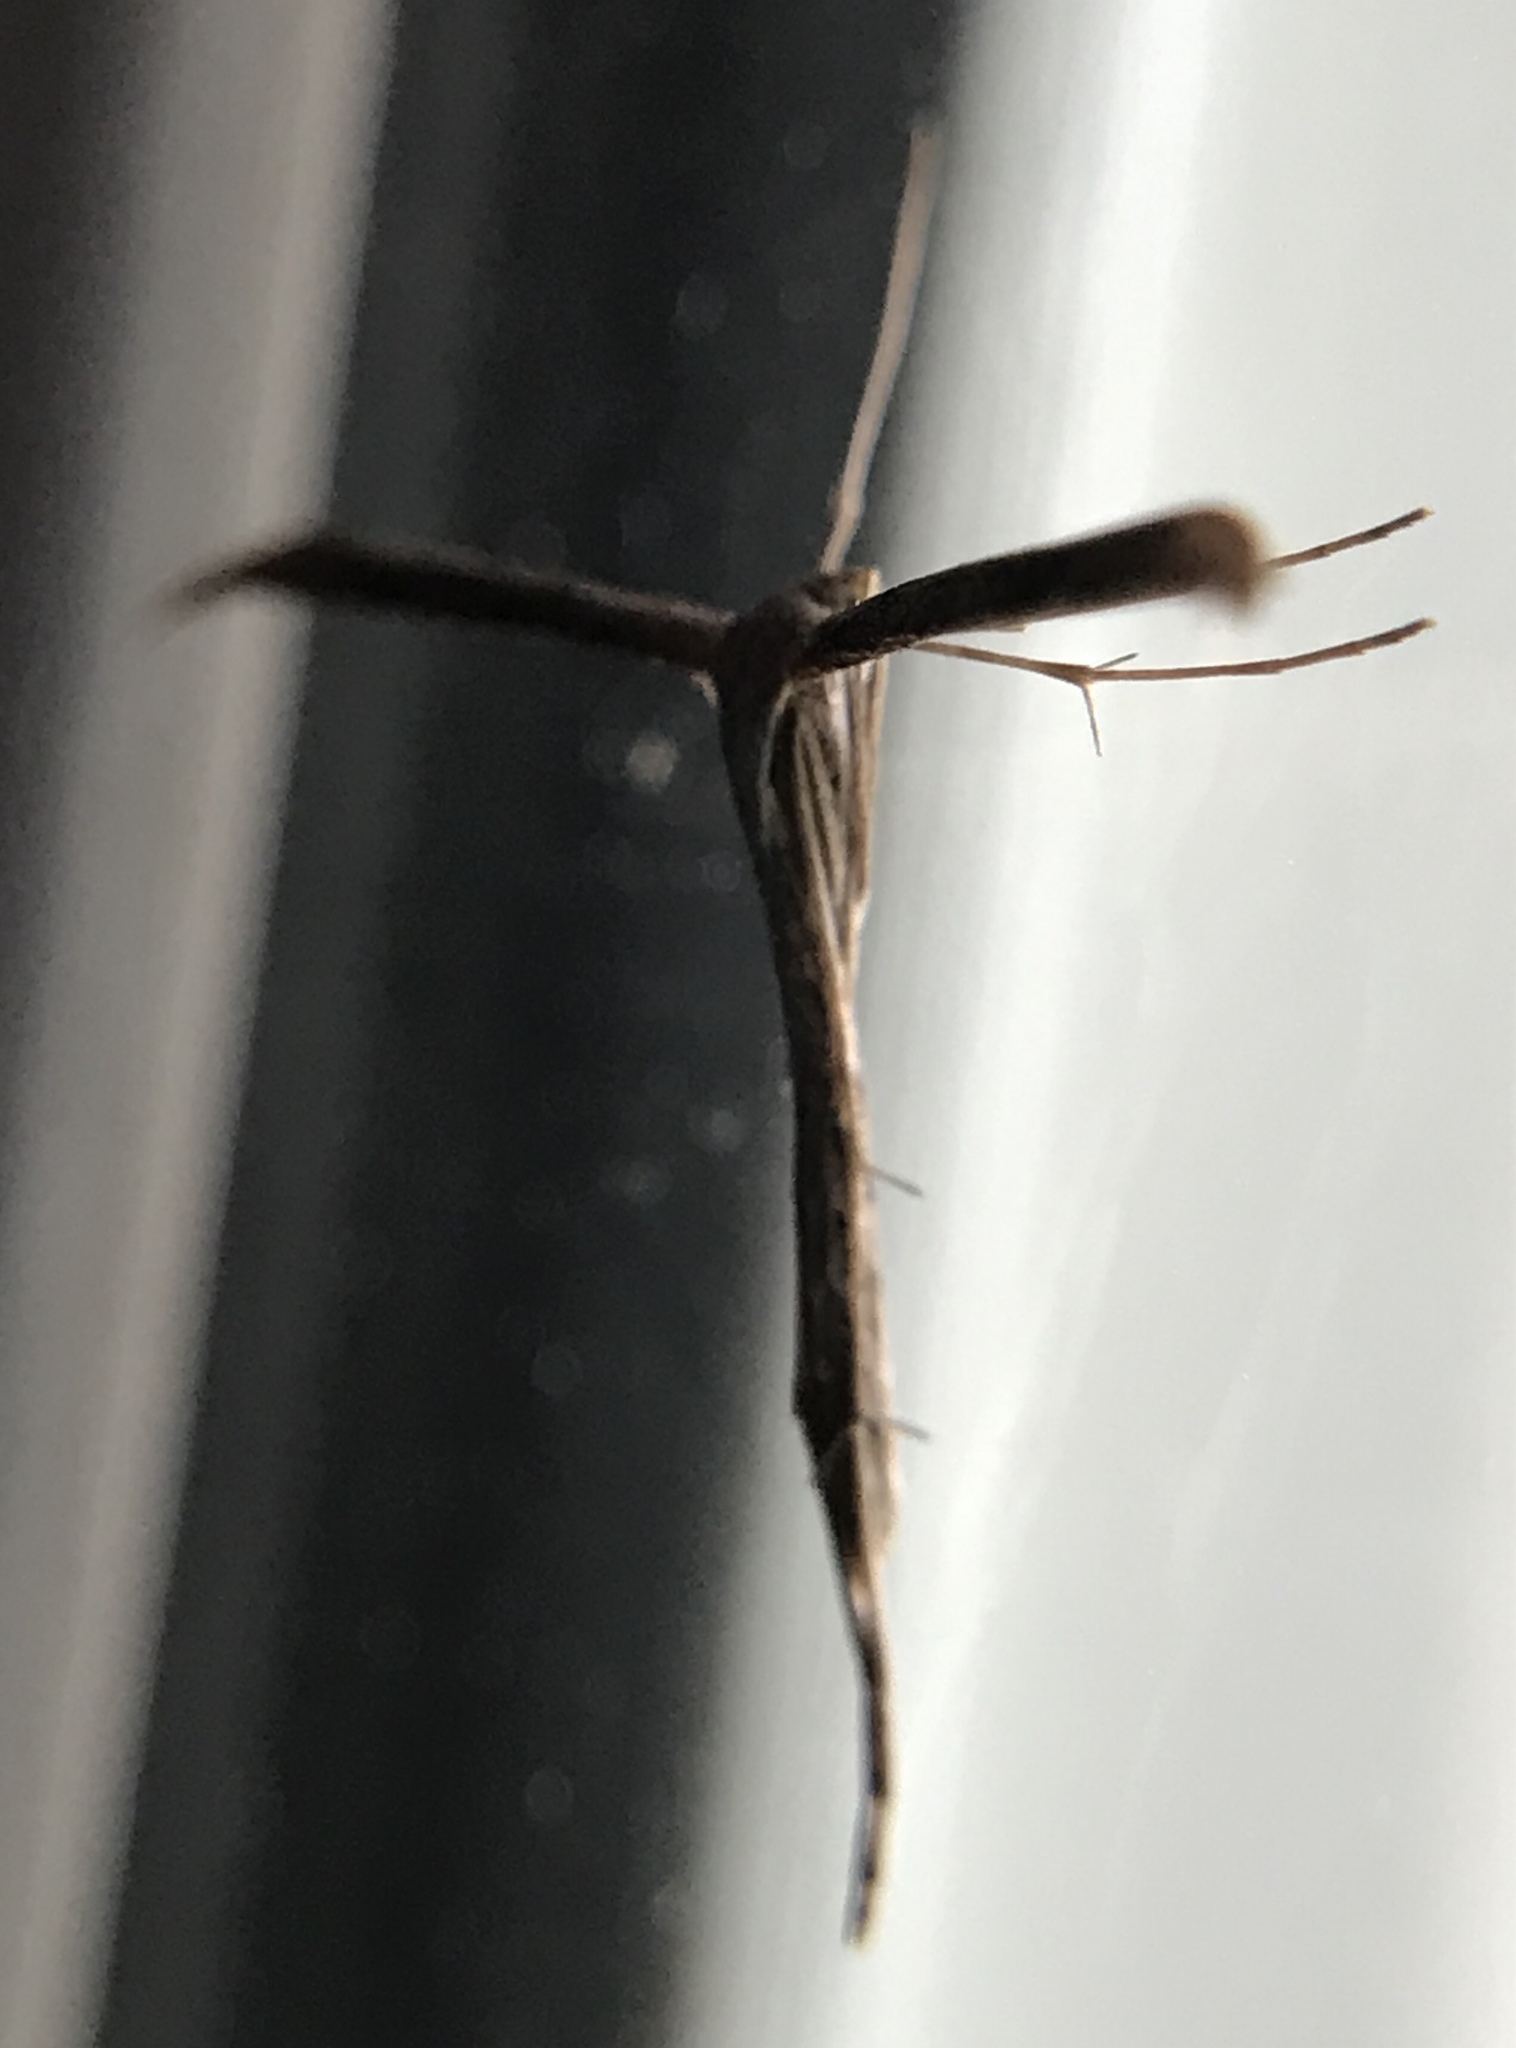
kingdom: Animalia
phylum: Arthropoda
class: Insecta
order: Lepidoptera
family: Pterophoridae
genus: Emmelina
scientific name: Emmelina monodactyla
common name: Common plume
